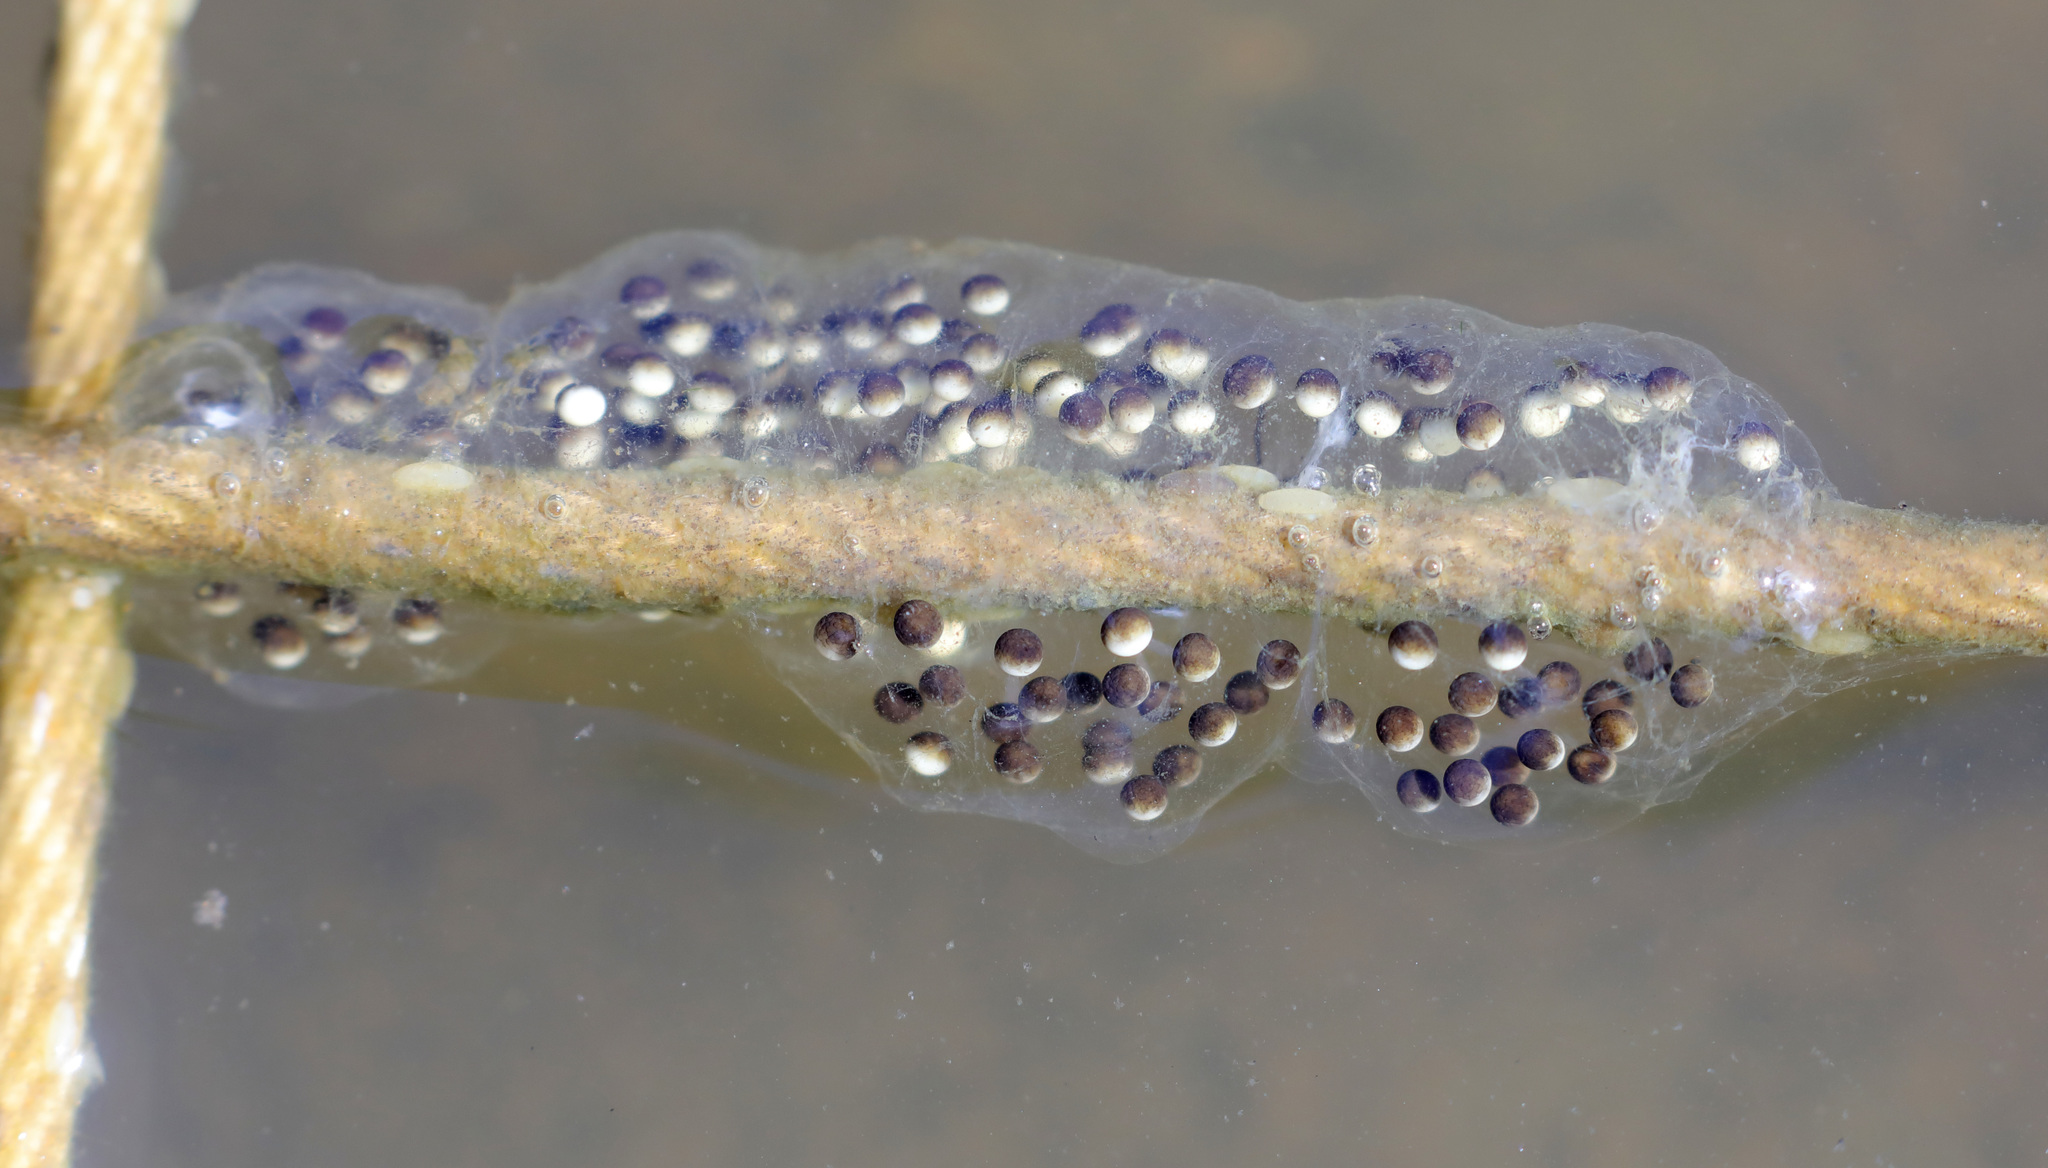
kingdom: Animalia
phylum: Chordata
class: Amphibia
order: Anura
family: Hylidae
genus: Pseudacris
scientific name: Pseudacris regilla
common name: Pacific chorus frog
